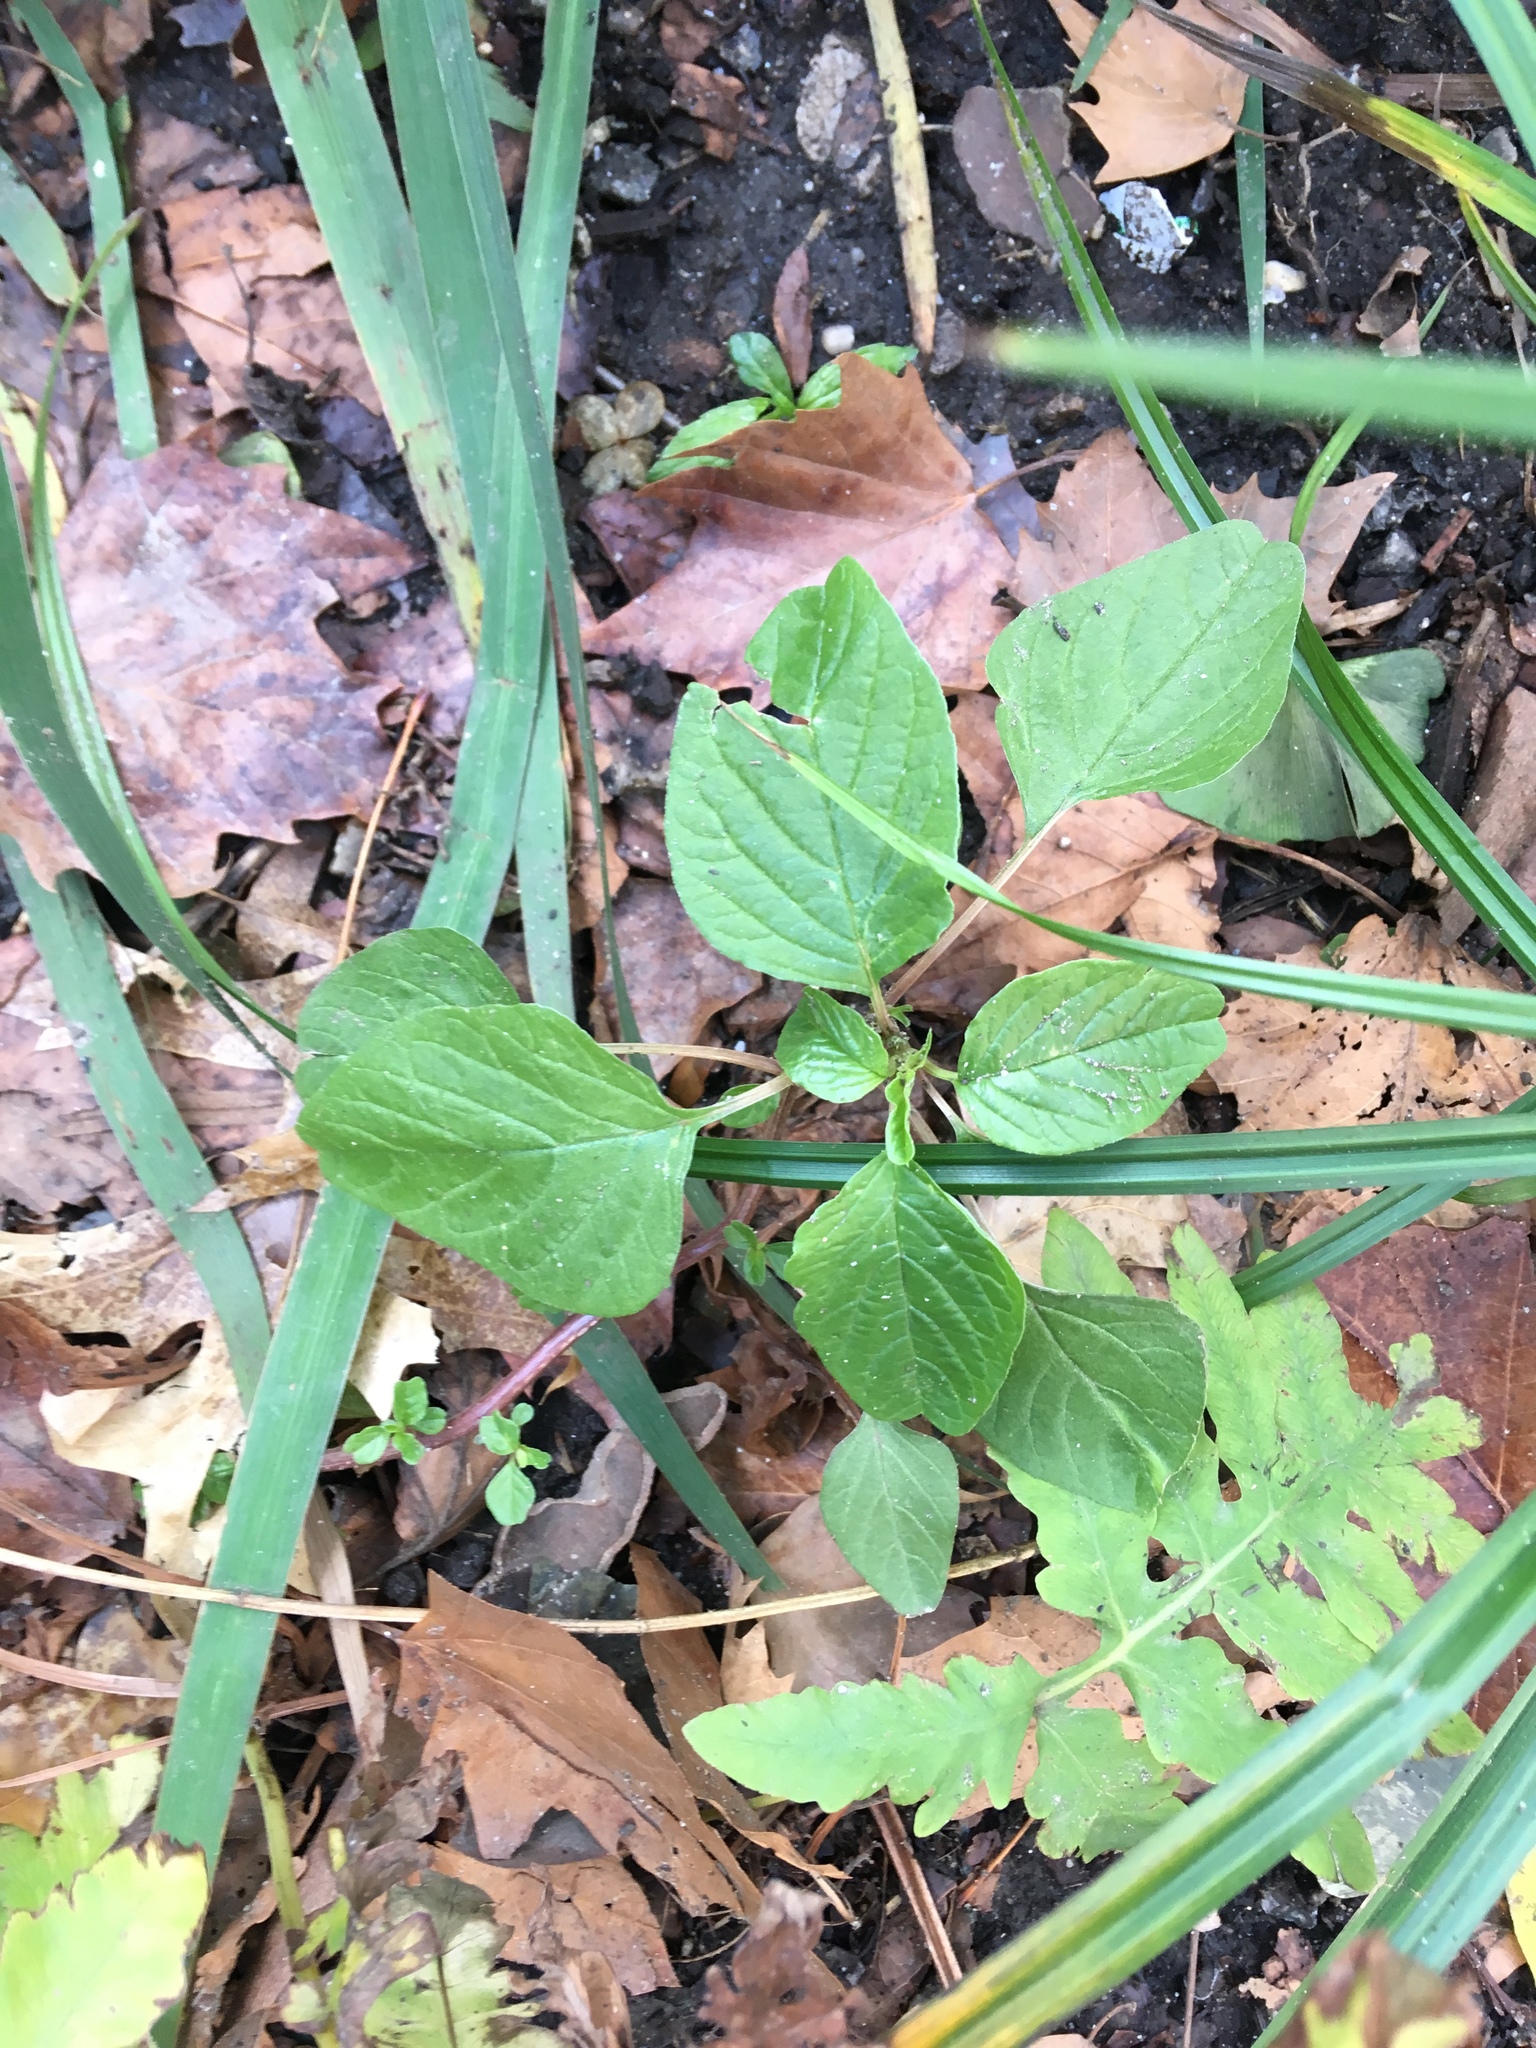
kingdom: Plantae
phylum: Tracheophyta
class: Magnoliopsida
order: Caryophyllales
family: Amaranthaceae
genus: Amaranthus
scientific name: Amaranthus blitum
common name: Purple amaranth
